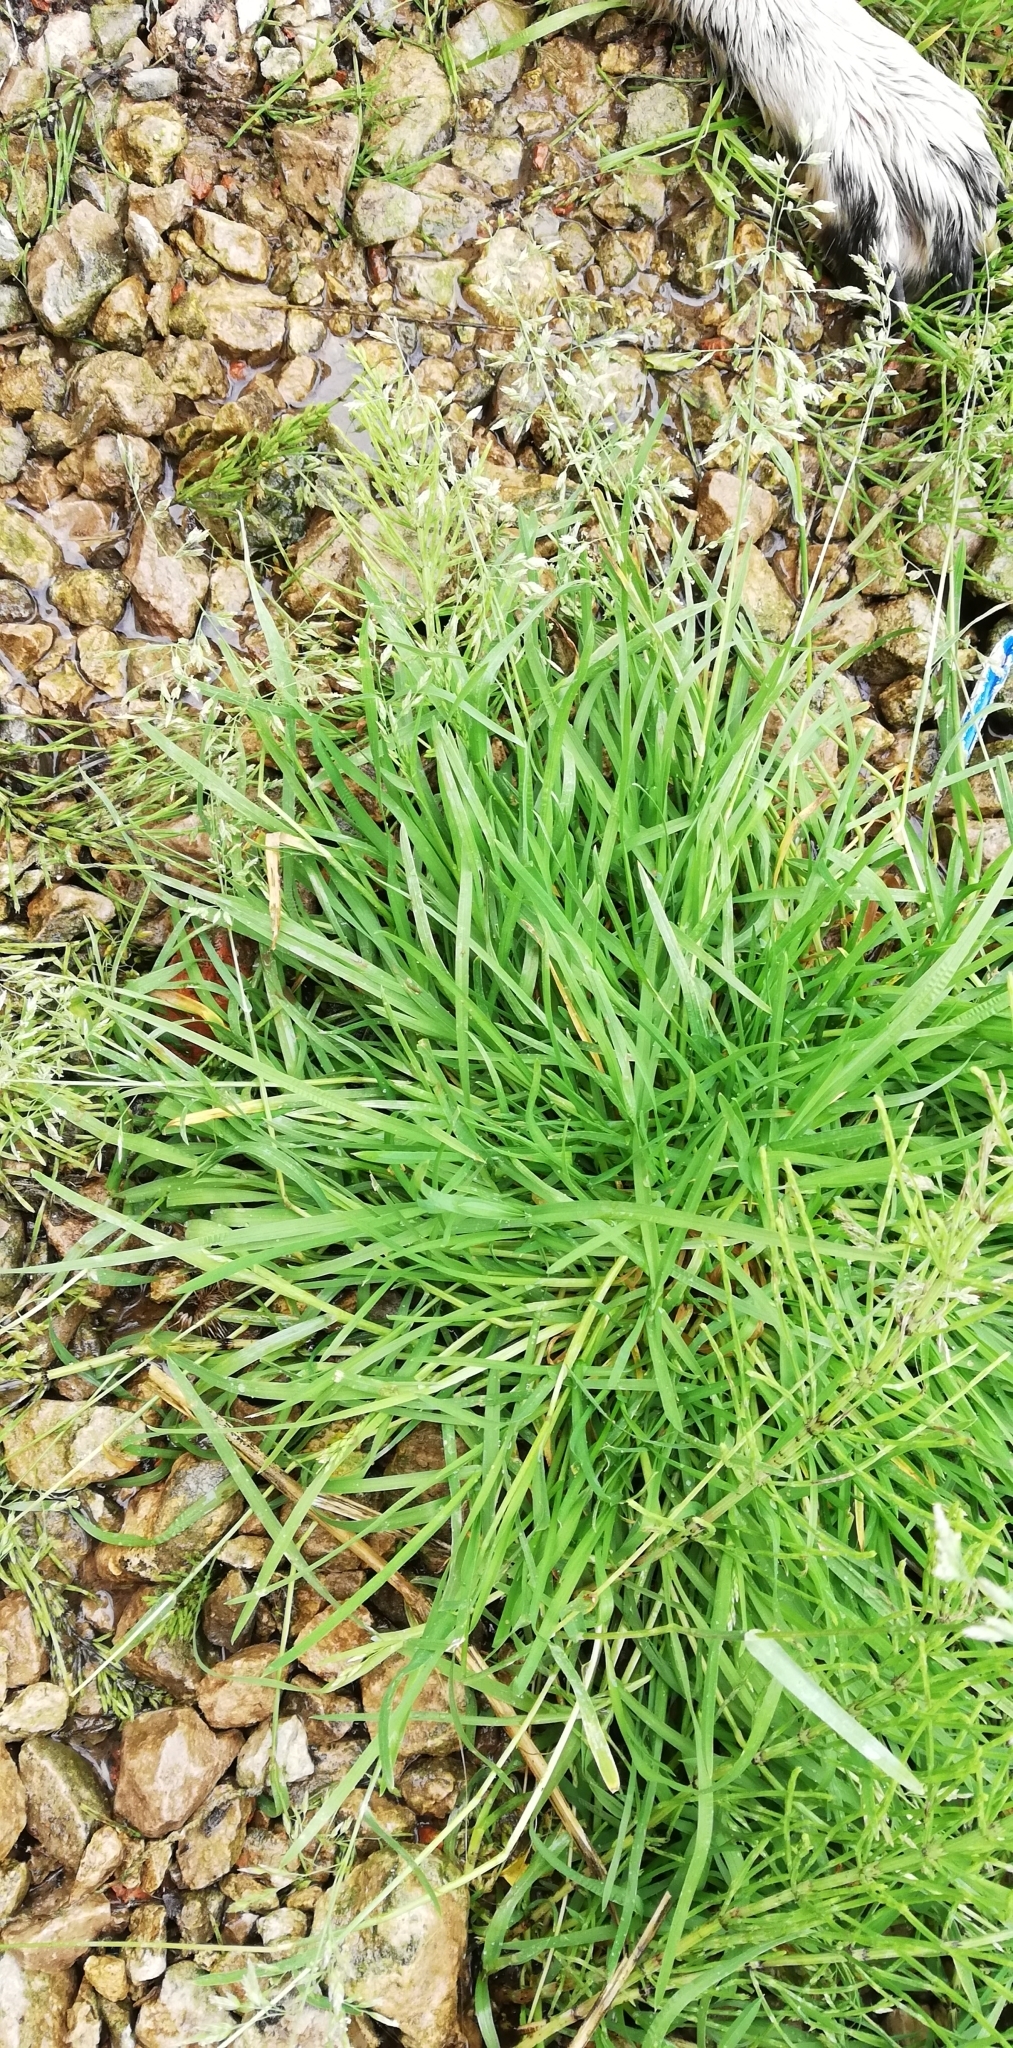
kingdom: Plantae
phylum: Tracheophyta
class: Liliopsida
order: Poales
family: Poaceae
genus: Poa
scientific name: Poa annua
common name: Annual bluegrass
